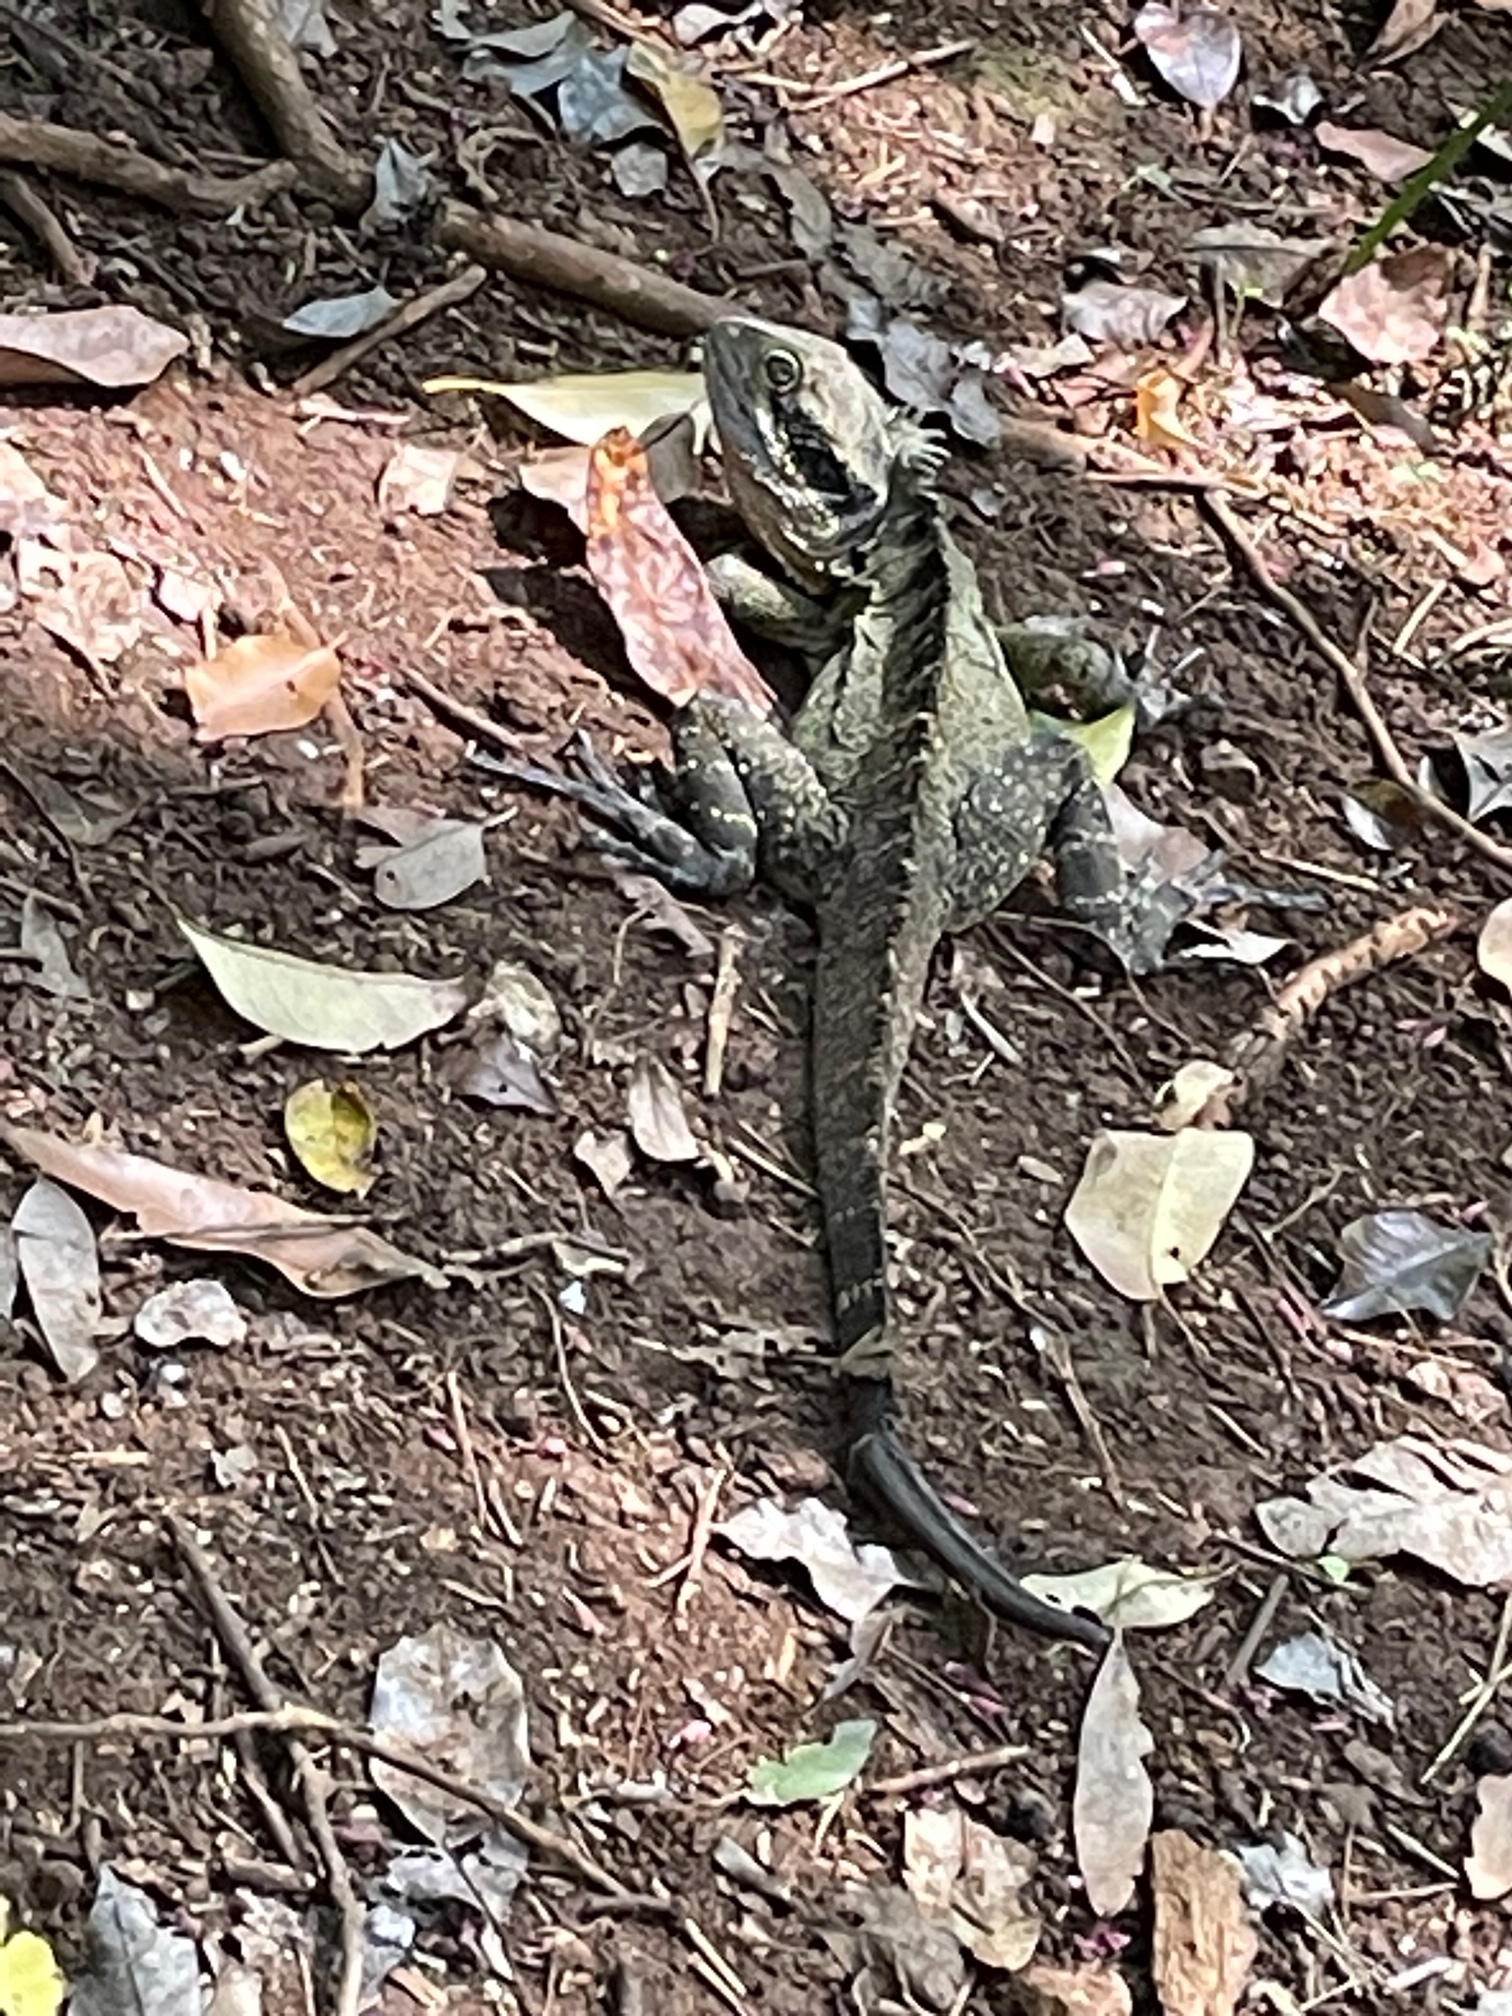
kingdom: Animalia
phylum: Chordata
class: Squamata
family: Agamidae
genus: Intellagama
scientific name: Intellagama lesueurii
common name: Eastern water dragon
